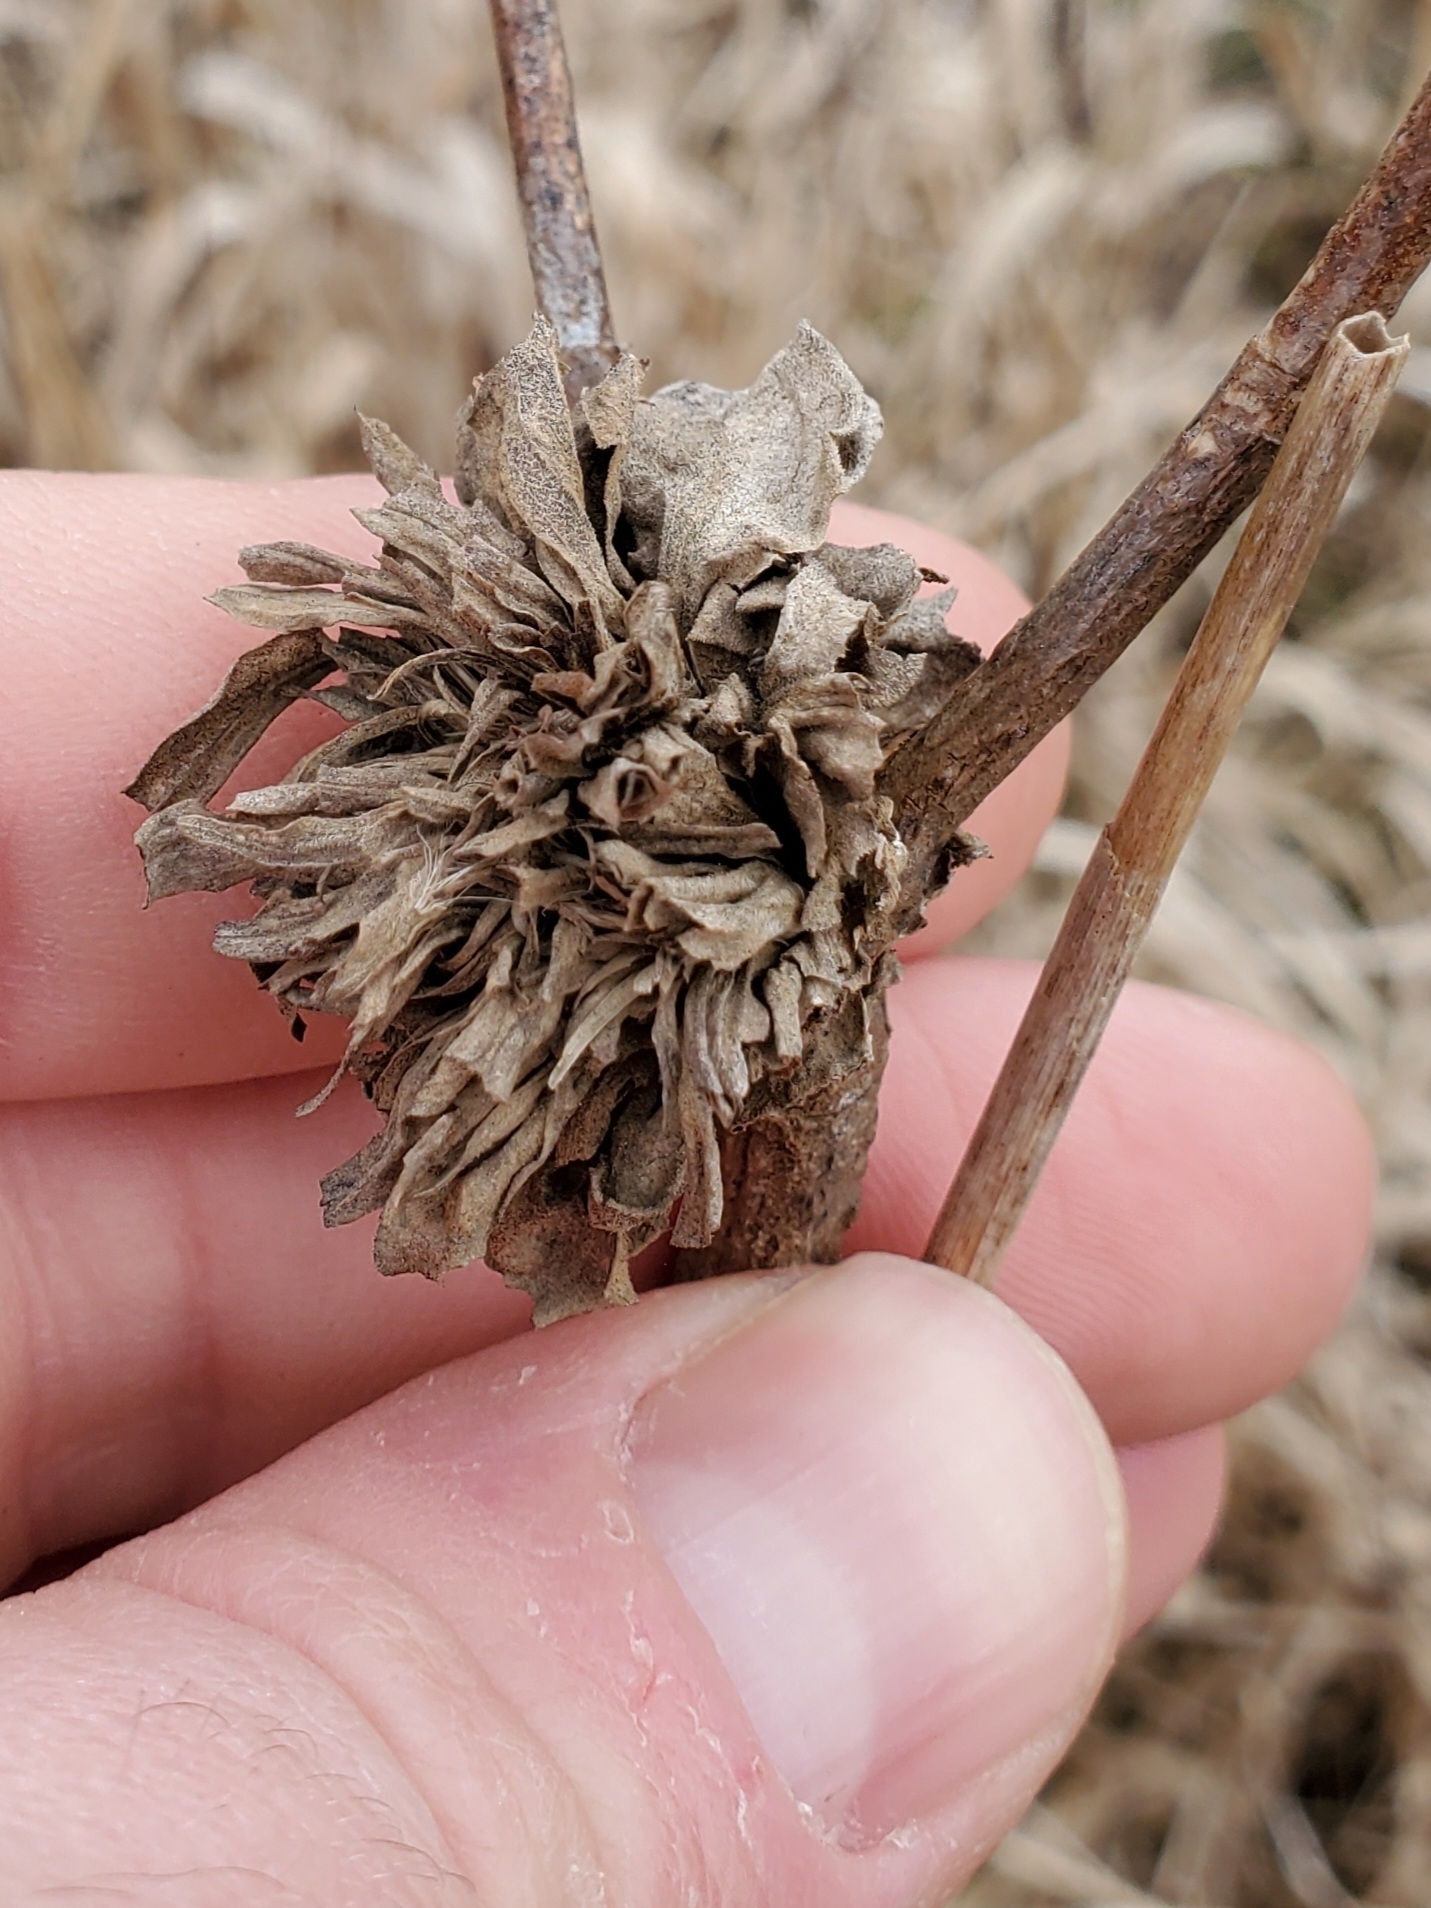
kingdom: Animalia
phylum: Arthropoda
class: Insecta
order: Diptera
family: Cecidomyiidae
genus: Rhopalomyia
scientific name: Rhopalomyia solidaginis
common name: Goldenrod bunch gall midge
